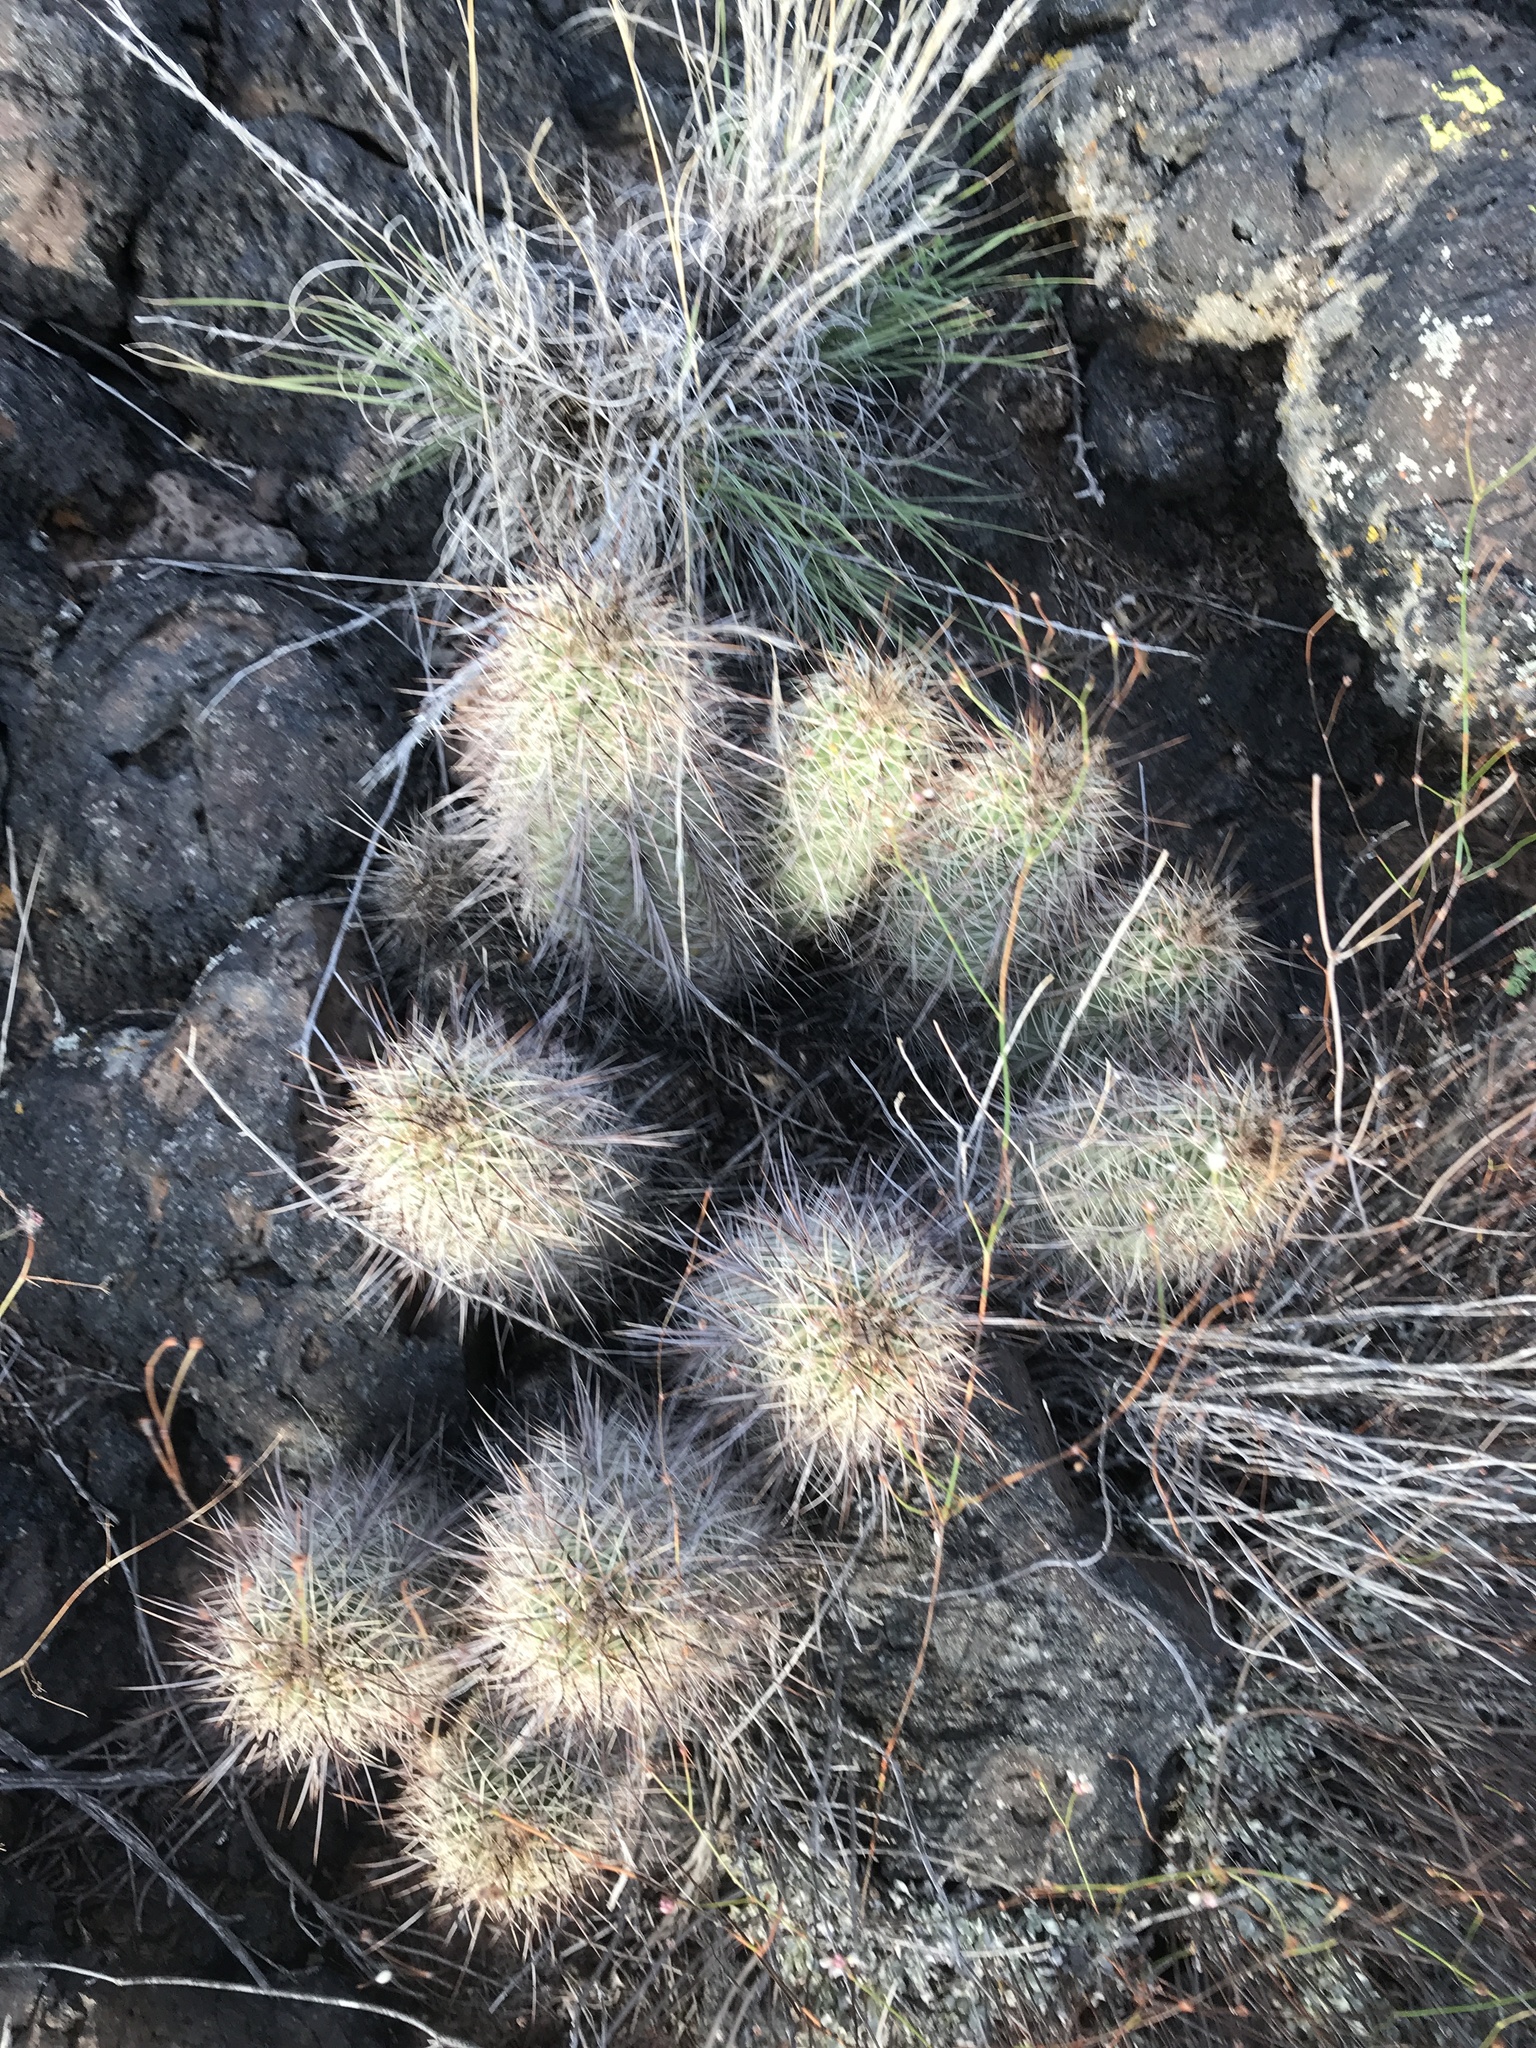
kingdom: Plantae
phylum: Tracheophyta
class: Magnoliopsida
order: Caryophyllales
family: Cactaceae
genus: Echinocereus
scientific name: Echinocereus coccineus
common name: Scarlet hedgehog cactus
